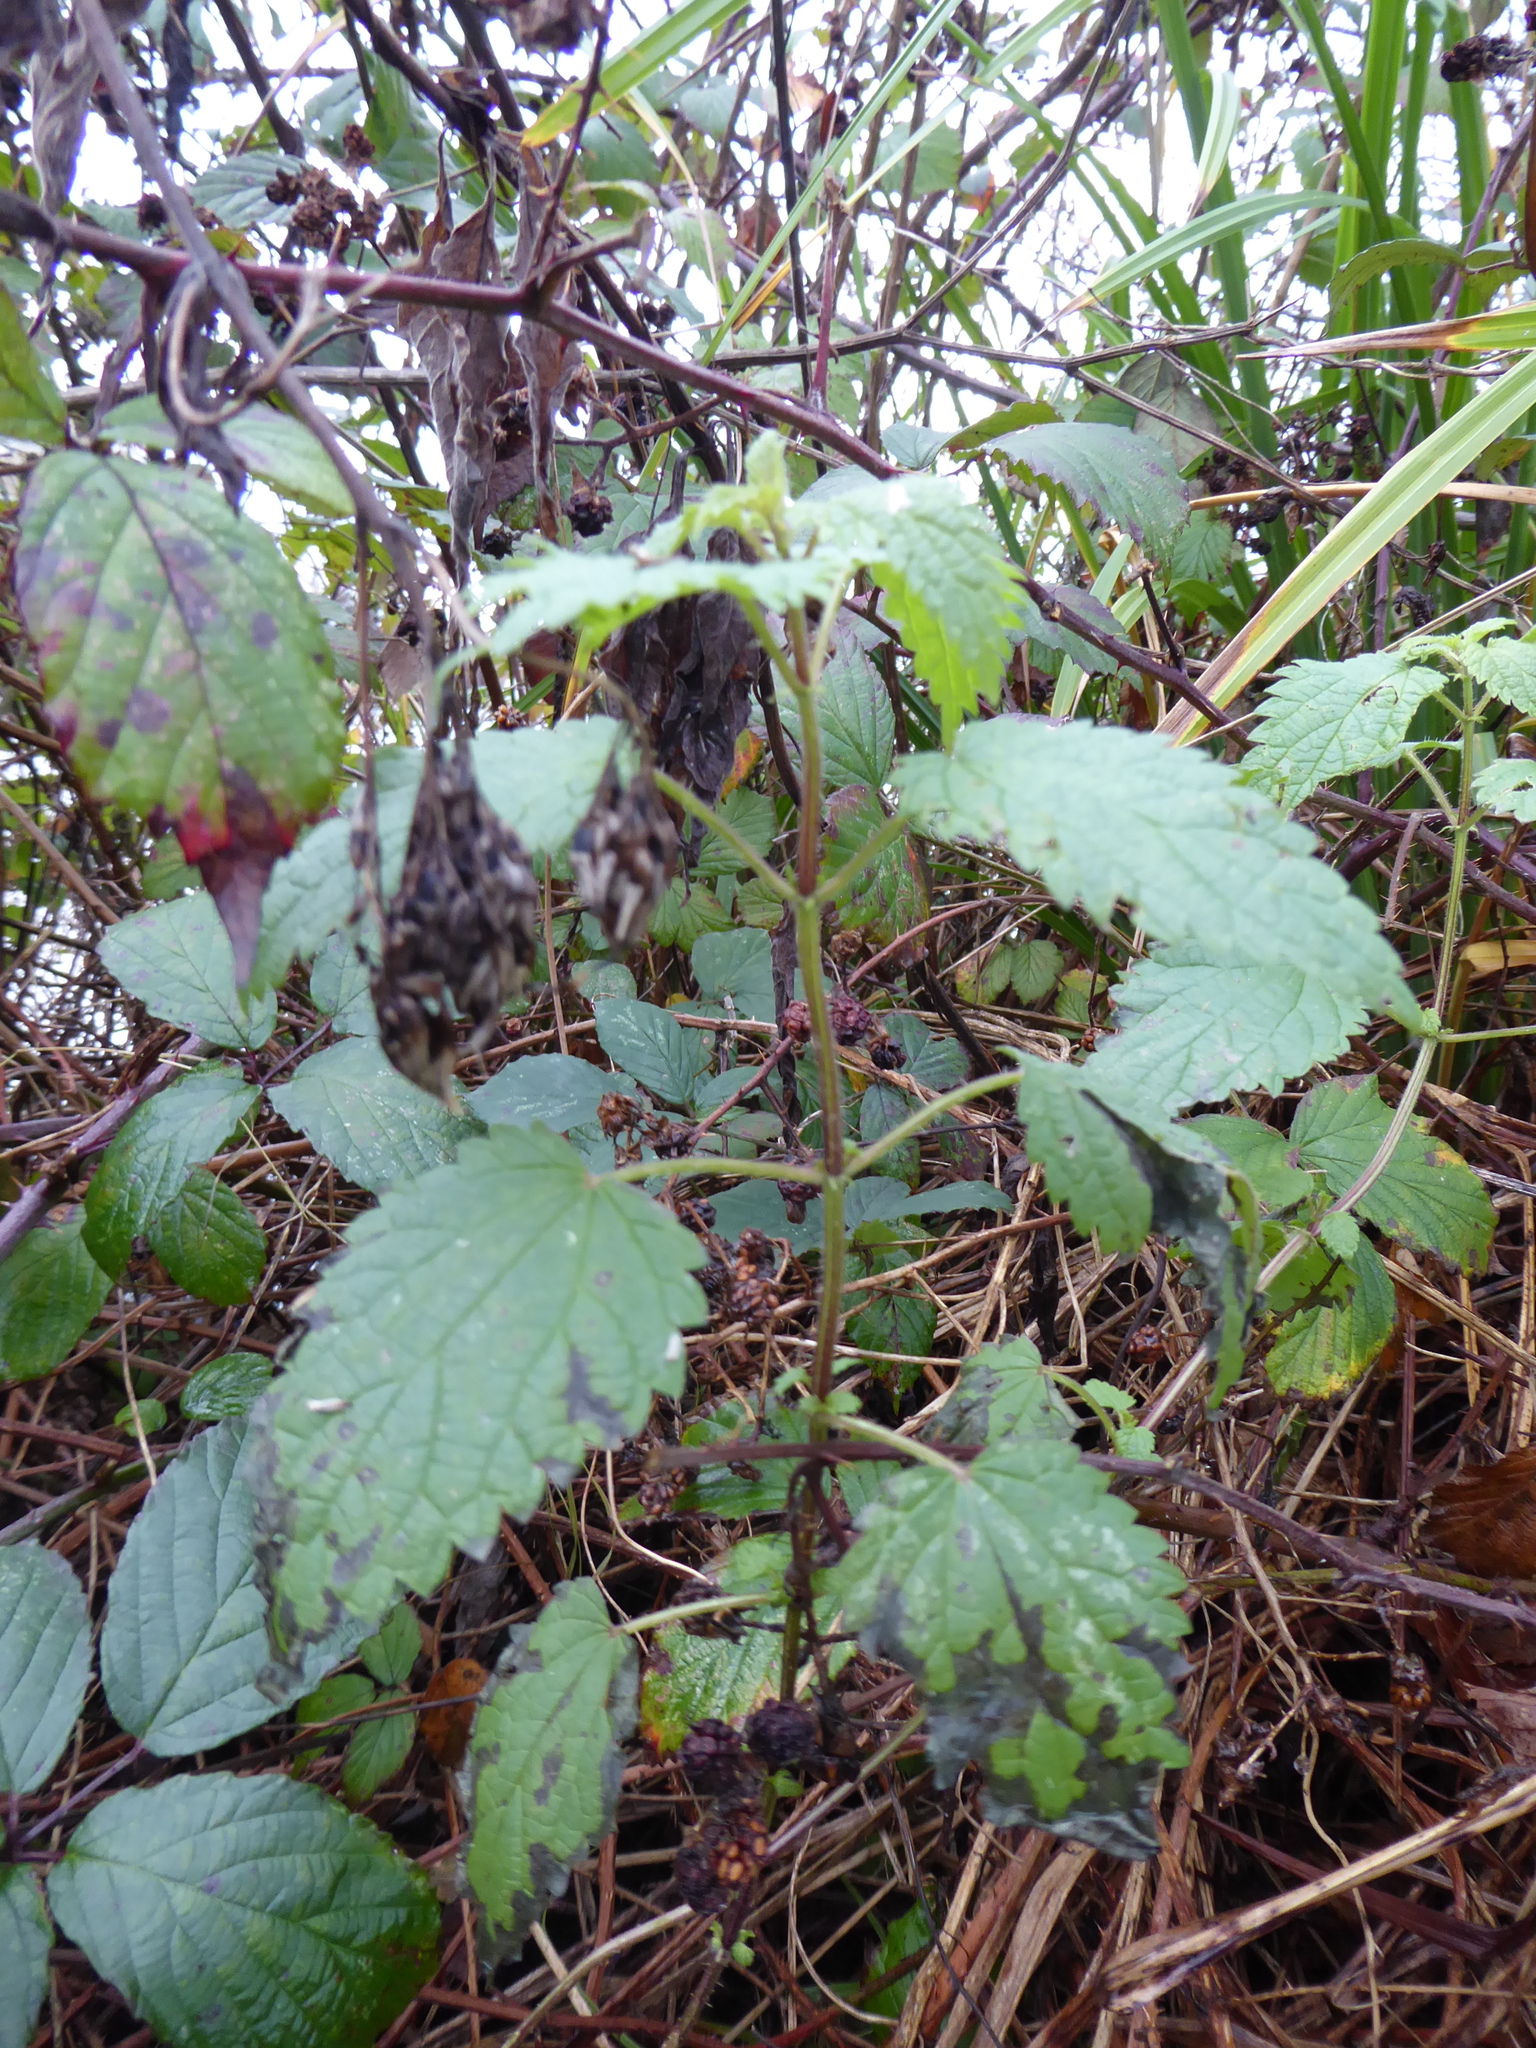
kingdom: Plantae
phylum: Tracheophyta
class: Magnoliopsida
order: Rosales
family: Urticaceae
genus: Urtica
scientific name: Urtica dioica
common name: Common nettle
